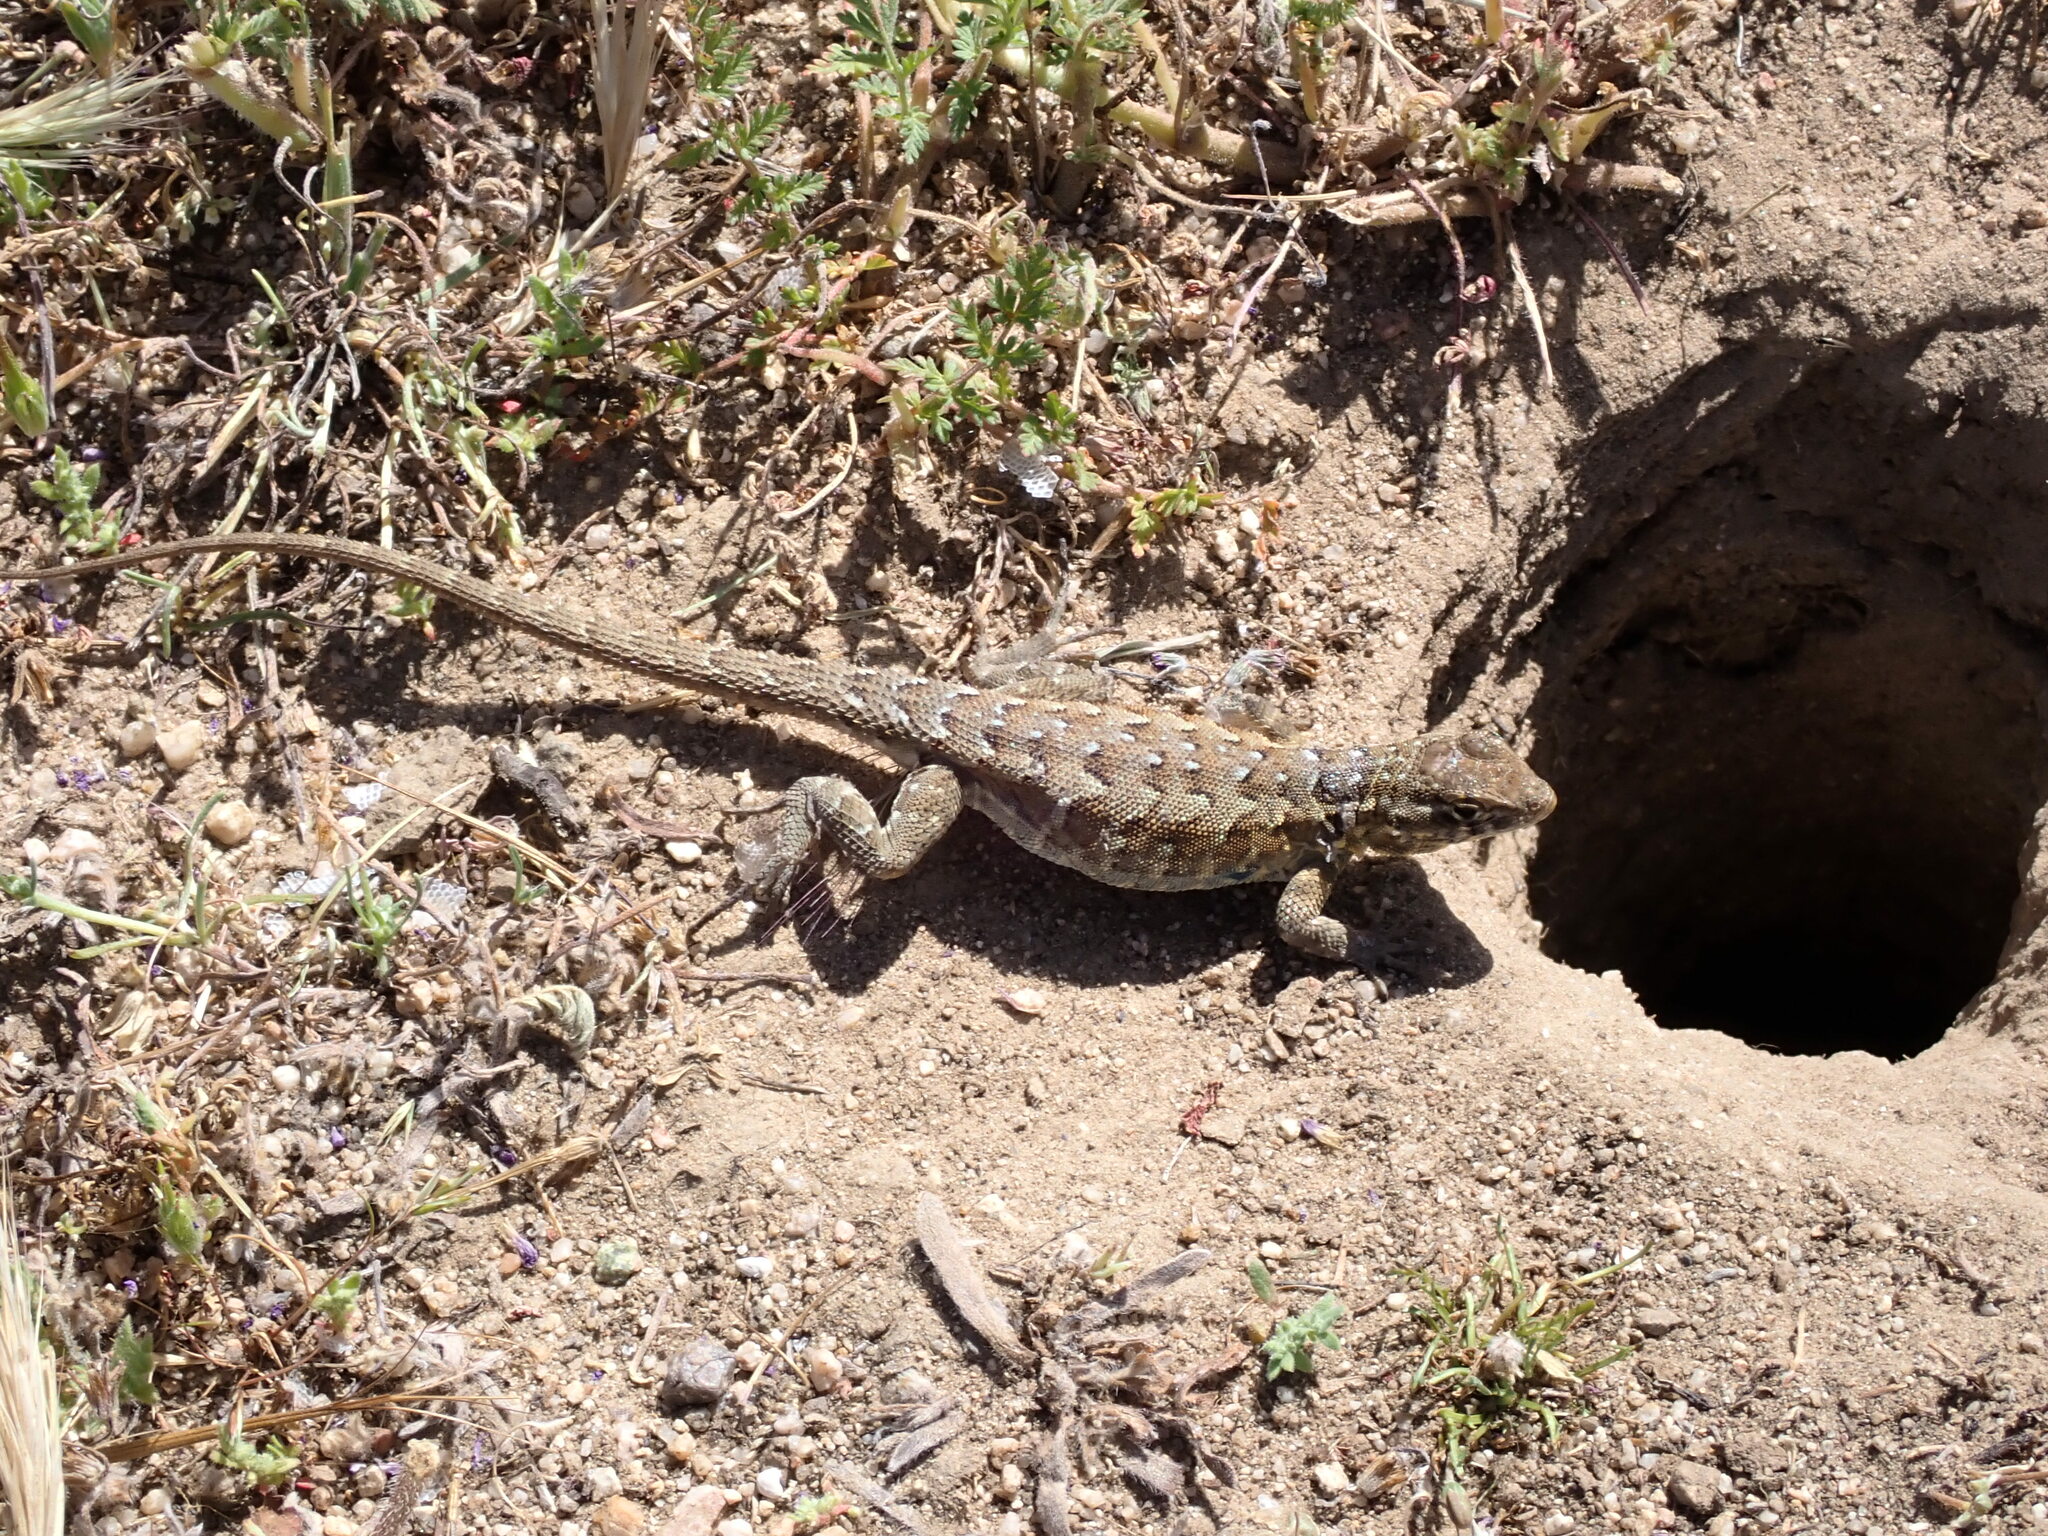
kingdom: Animalia
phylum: Chordata
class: Squamata
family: Phrynosomatidae
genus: Uta
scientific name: Uta stansburiana
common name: Side-blotched lizard
